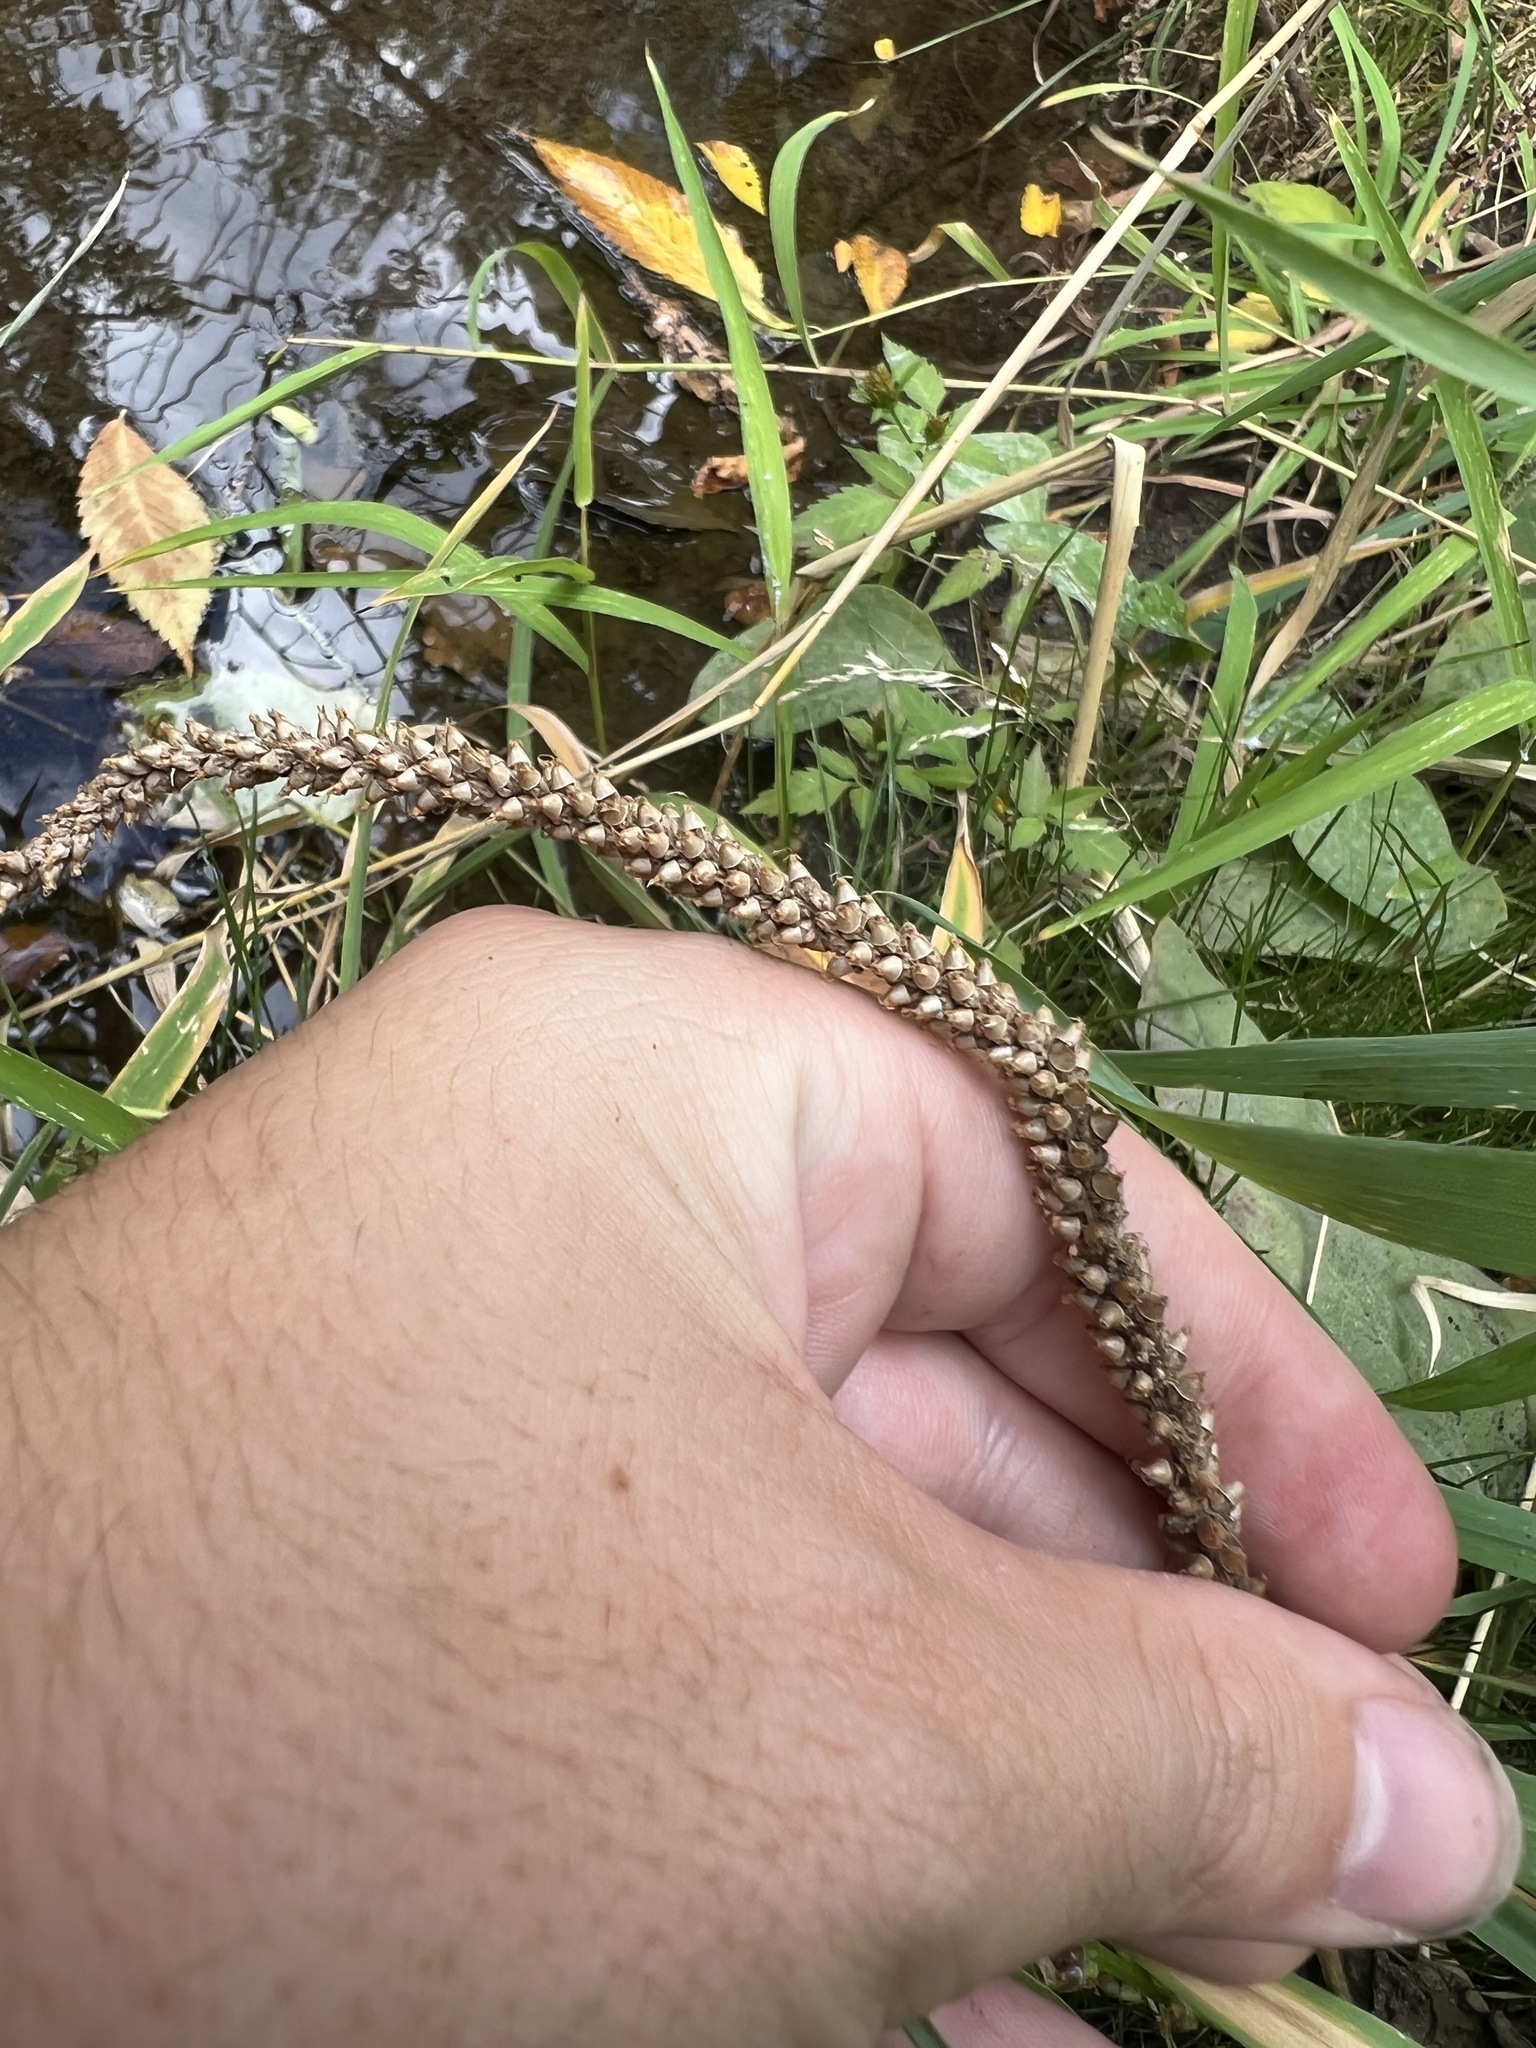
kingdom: Plantae
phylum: Tracheophyta
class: Magnoliopsida
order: Lamiales
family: Plantaginaceae
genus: Plantago
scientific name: Plantago major
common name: Common plantain
